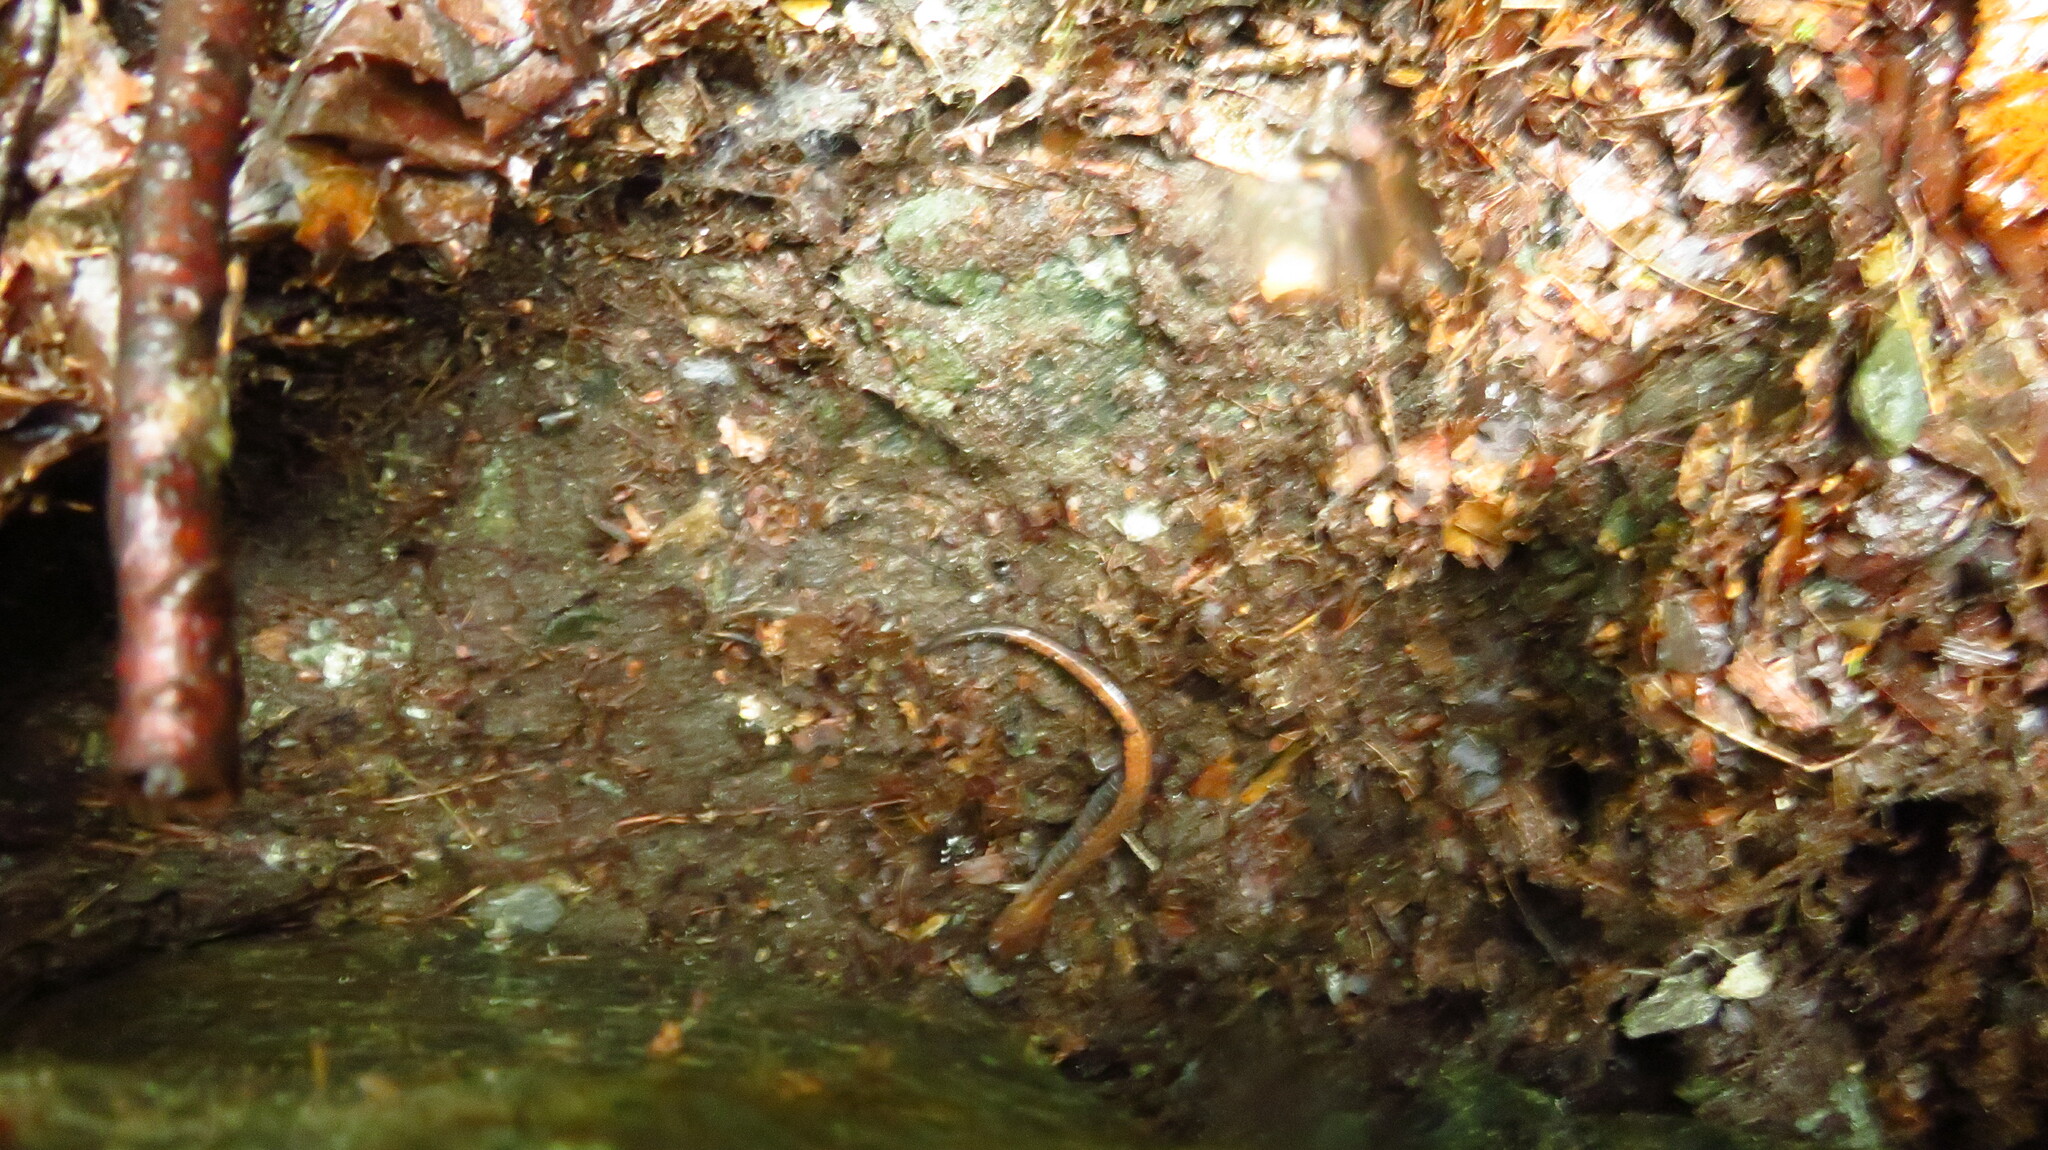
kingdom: Animalia
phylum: Chordata
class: Amphibia
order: Caudata
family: Plethodontidae
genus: Plethodon
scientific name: Plethodon cinereus
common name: Redback salamander
